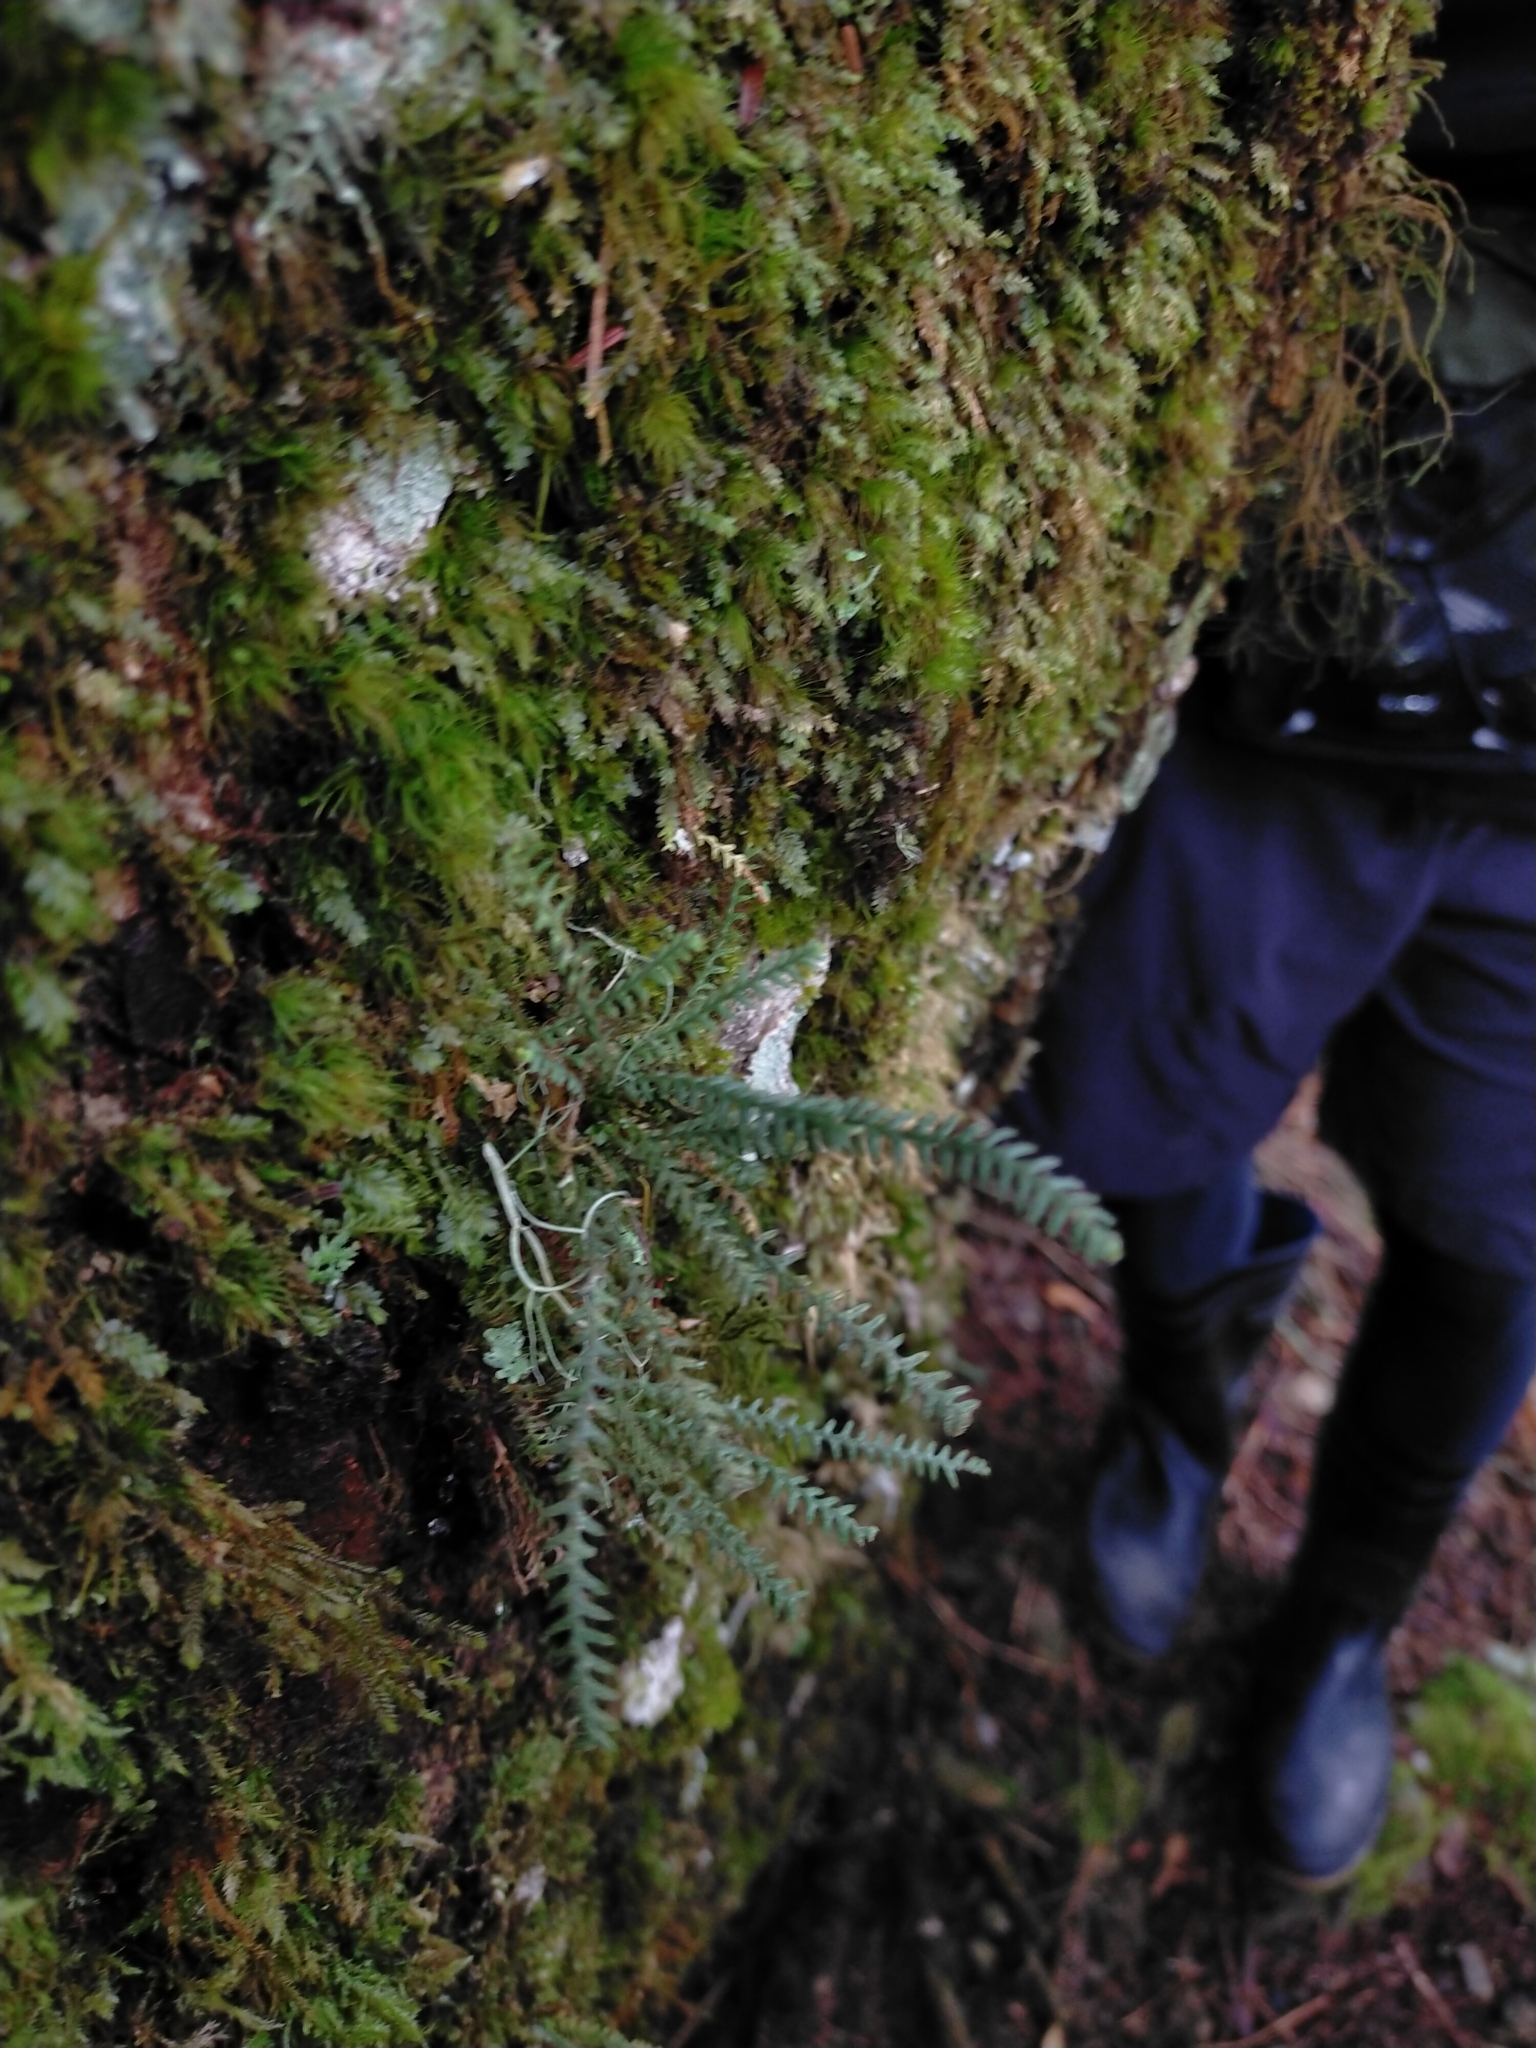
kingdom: Plantae
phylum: Tracheophyta
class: Polypodiopsida
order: Polypodiales
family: Polypodiaceae
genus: Micropolypodium
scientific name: Micropolypodium okuboi
